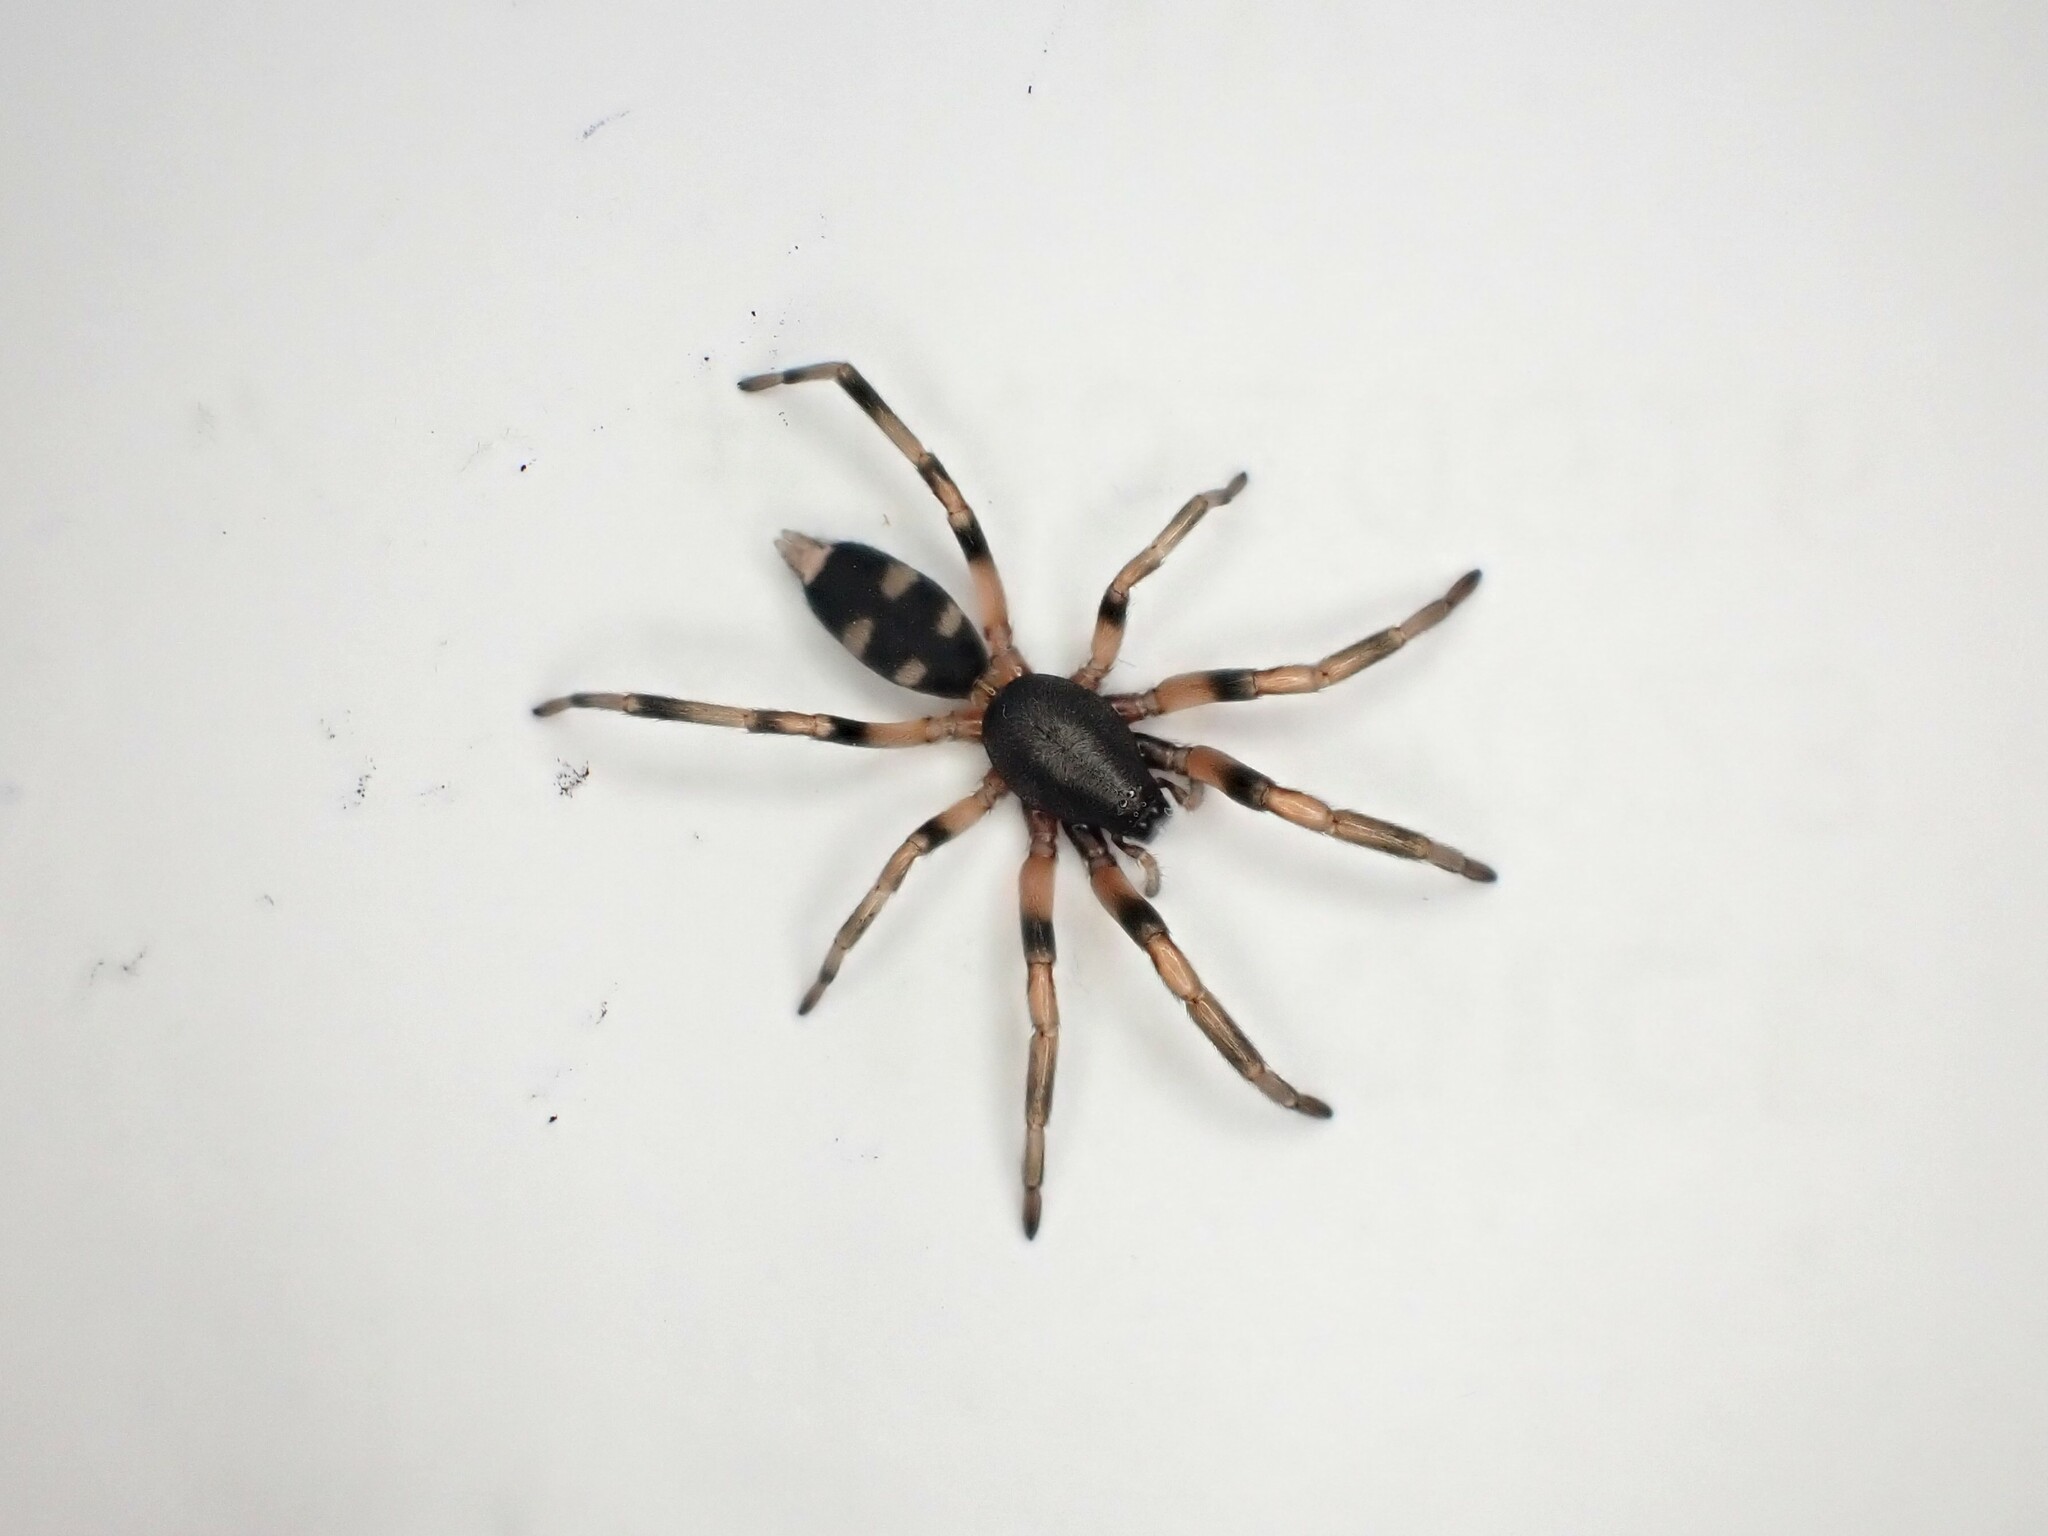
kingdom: Animalia
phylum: Arthropoda
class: Arachnida
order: Araneae
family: Lamponidae
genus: Lampona
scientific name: Lampona murina
